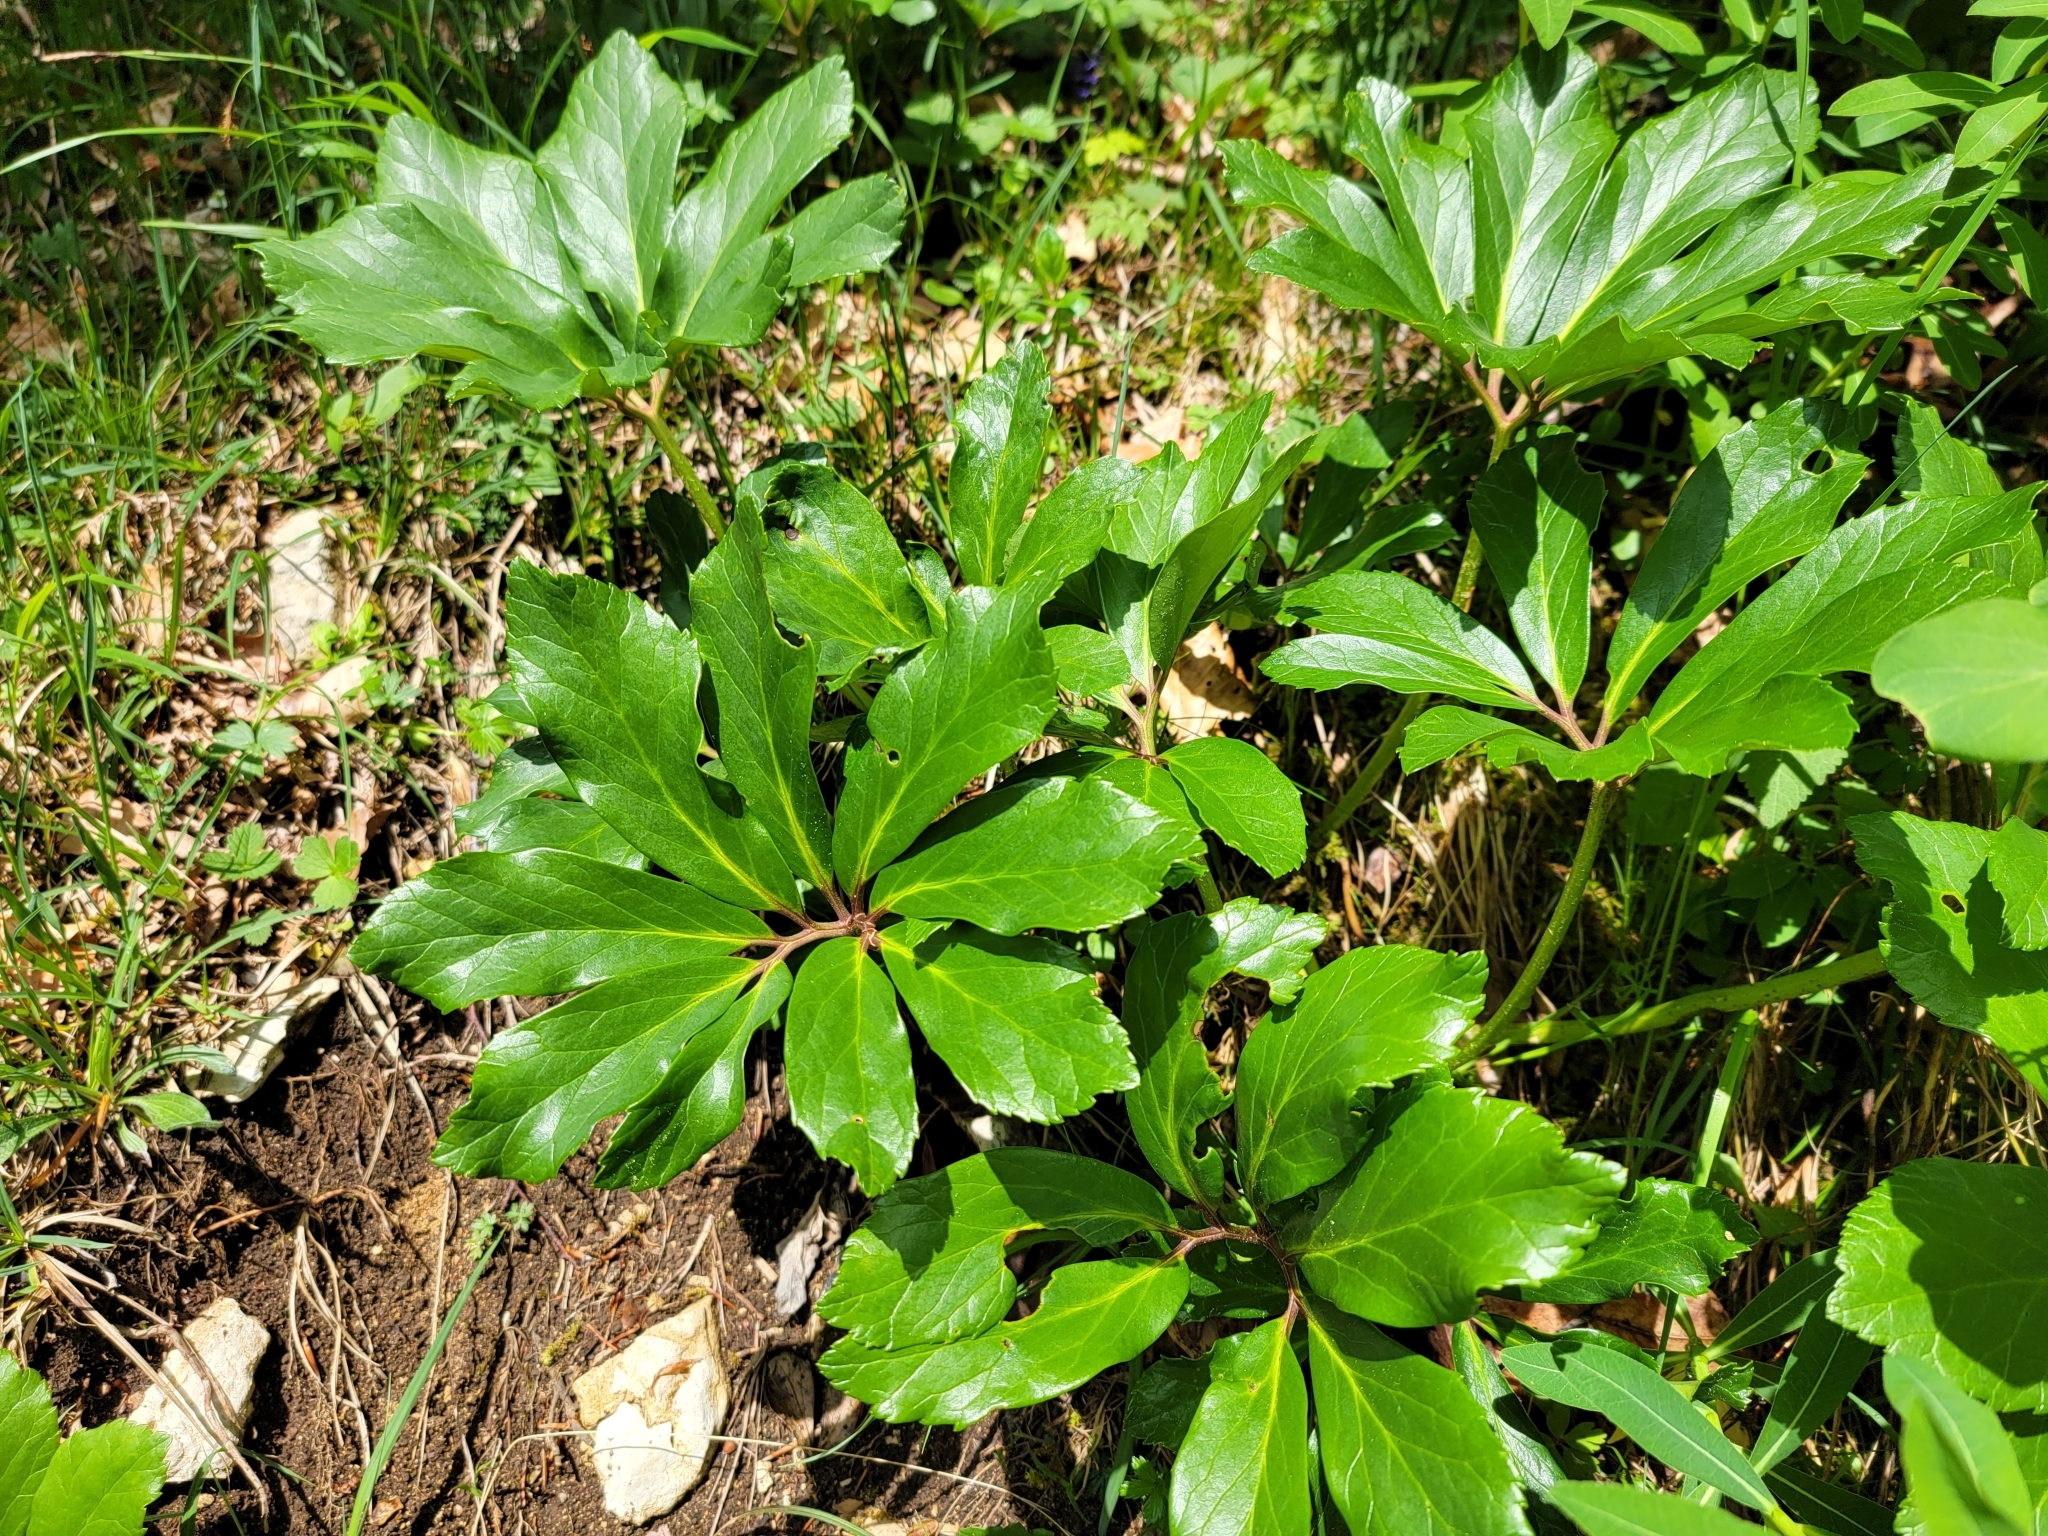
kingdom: Plantae
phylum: Tracheophyta
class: Magnoliopsida
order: Ranunculales
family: Ranunculaceae
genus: Helleborus
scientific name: Helleborus niger
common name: Black hellebore
